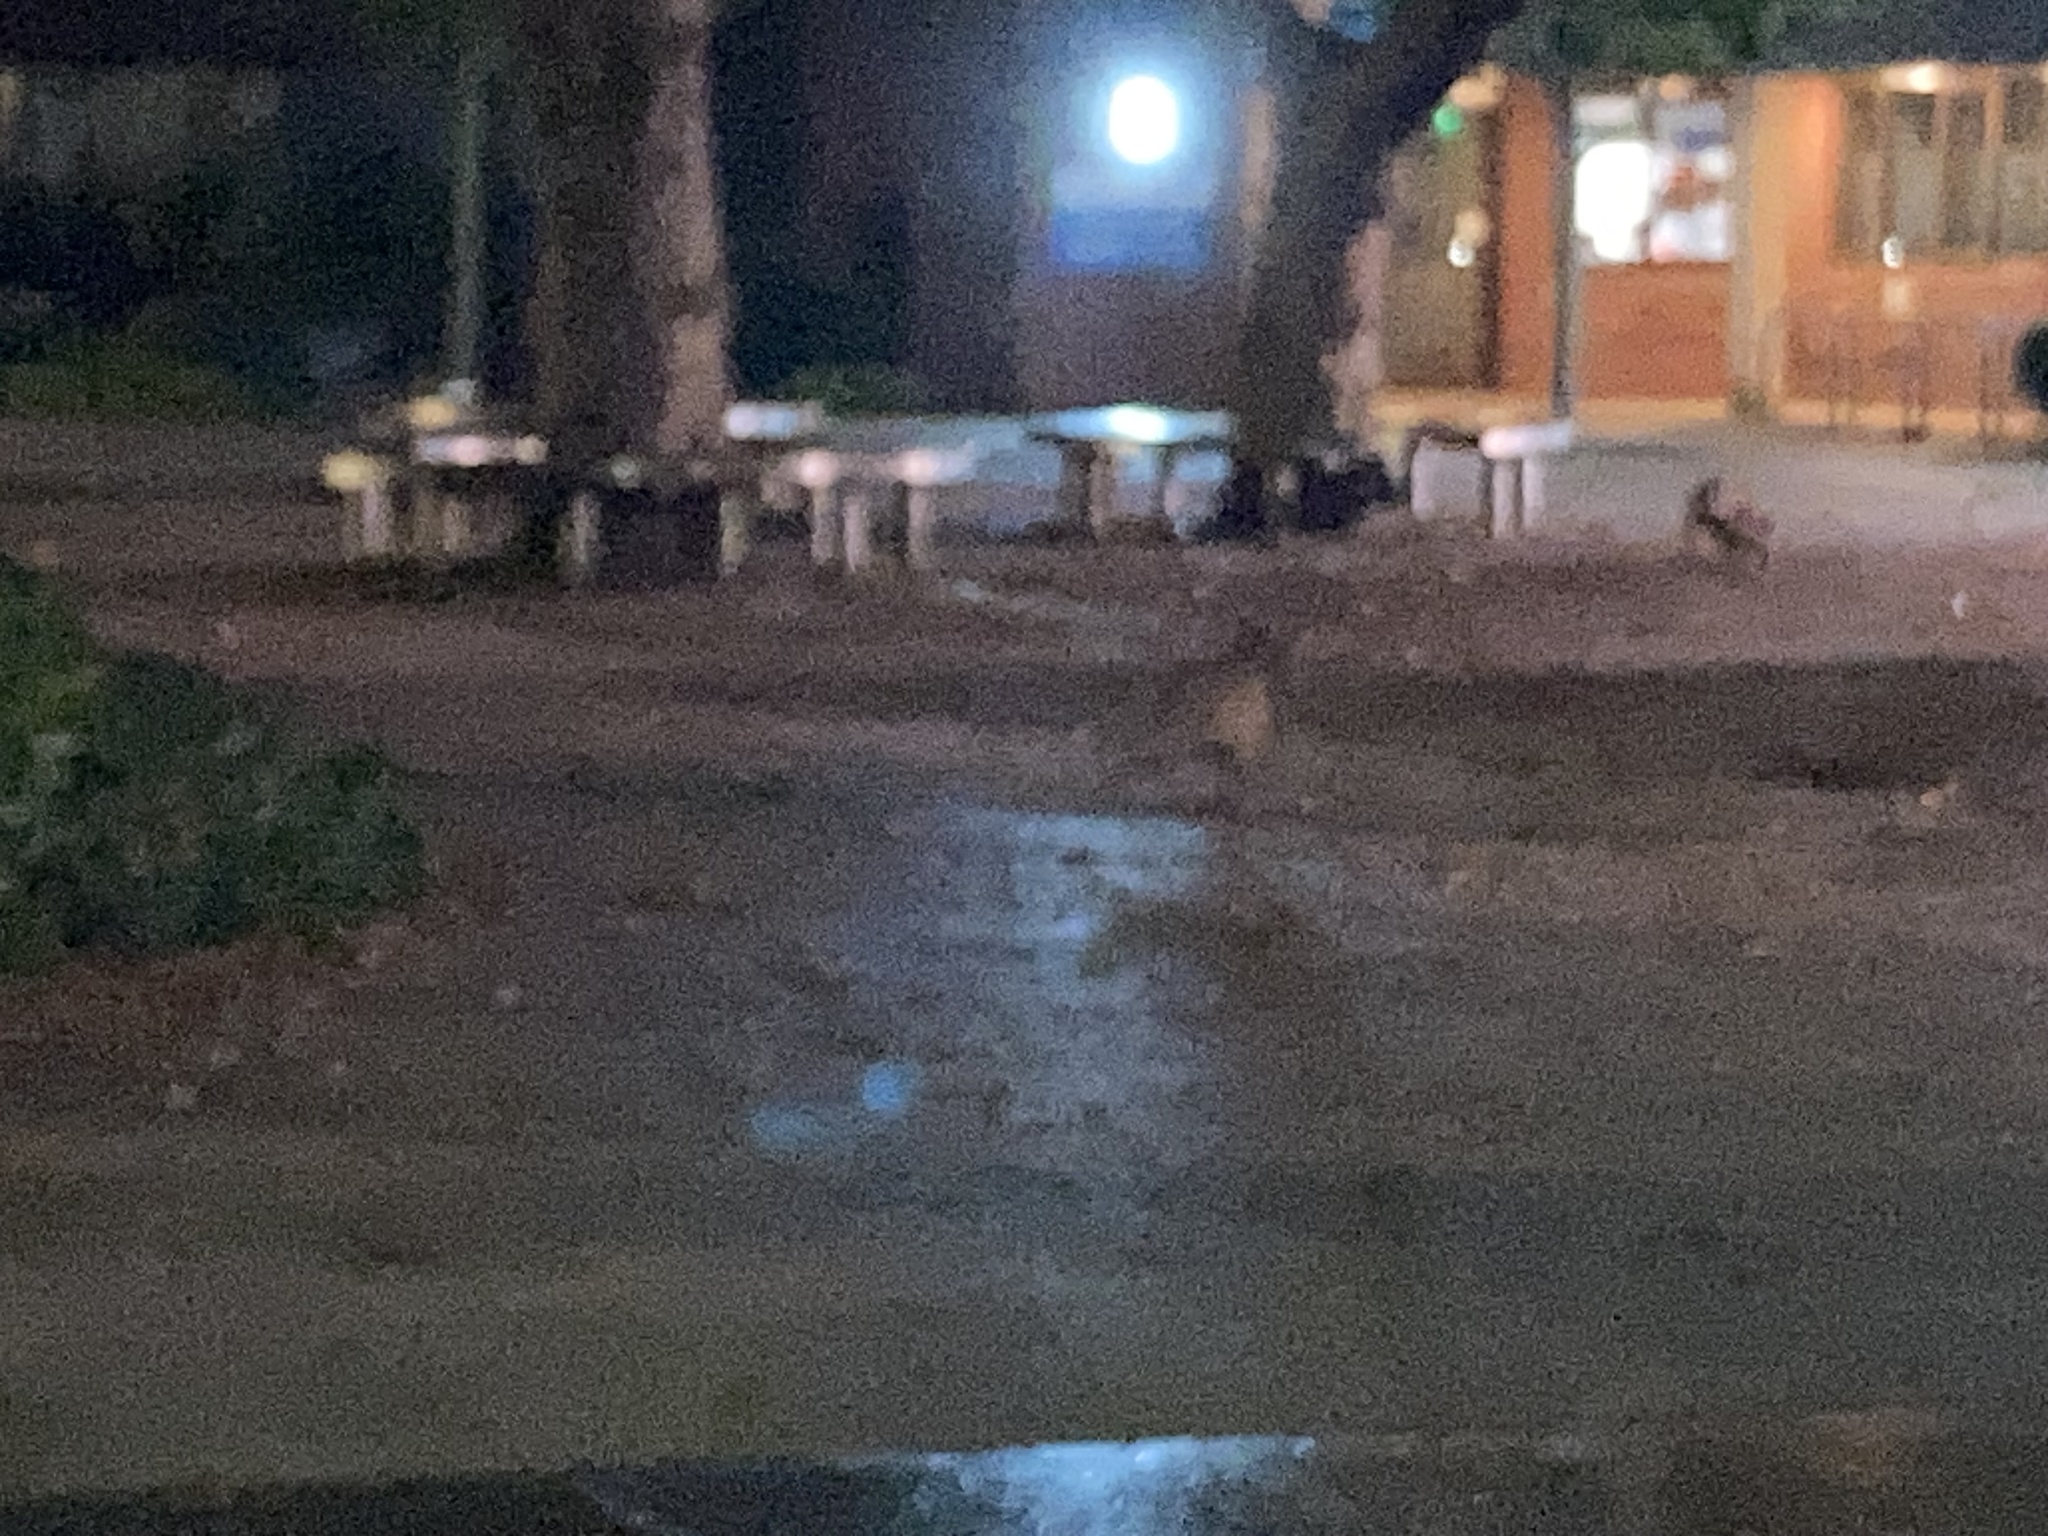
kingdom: Animalia
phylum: Chordata
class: Mammalia
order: Carnivora
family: Canidae
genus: Vulpes
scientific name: Vulpes vulpes
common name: Red fox
